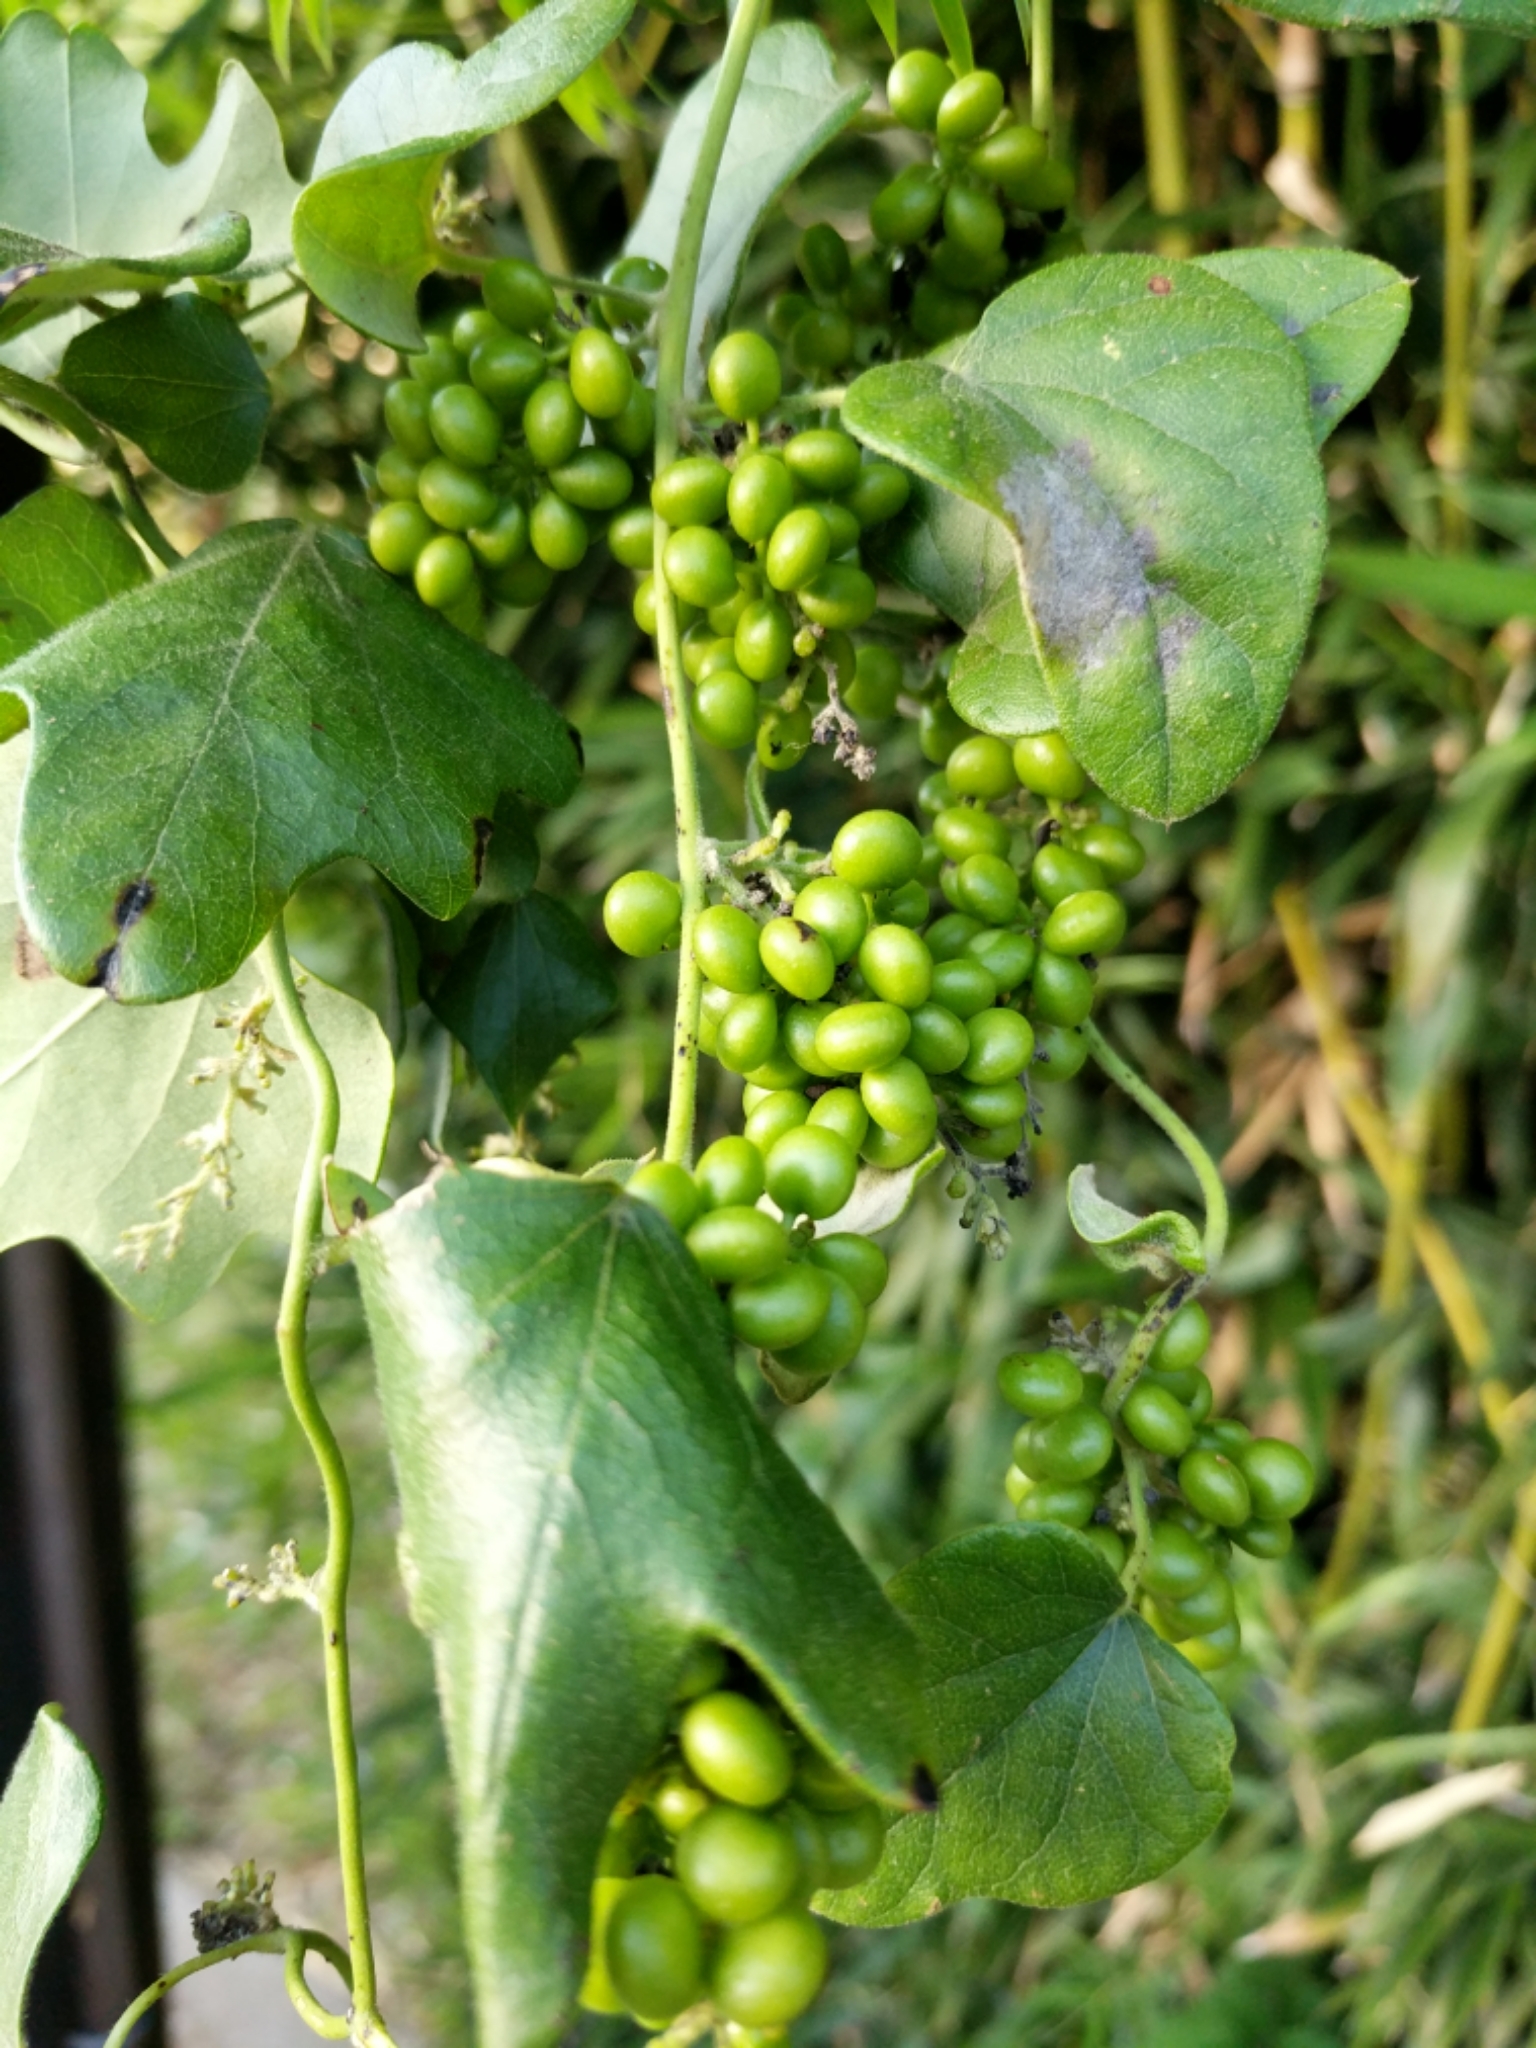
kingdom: Plantae
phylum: Tracheophyta
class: Magnoliopsida
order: Ranunculales
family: Menispermaceae
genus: Cocculus
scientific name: Cocculus carolinus
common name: Carolina moonseed
